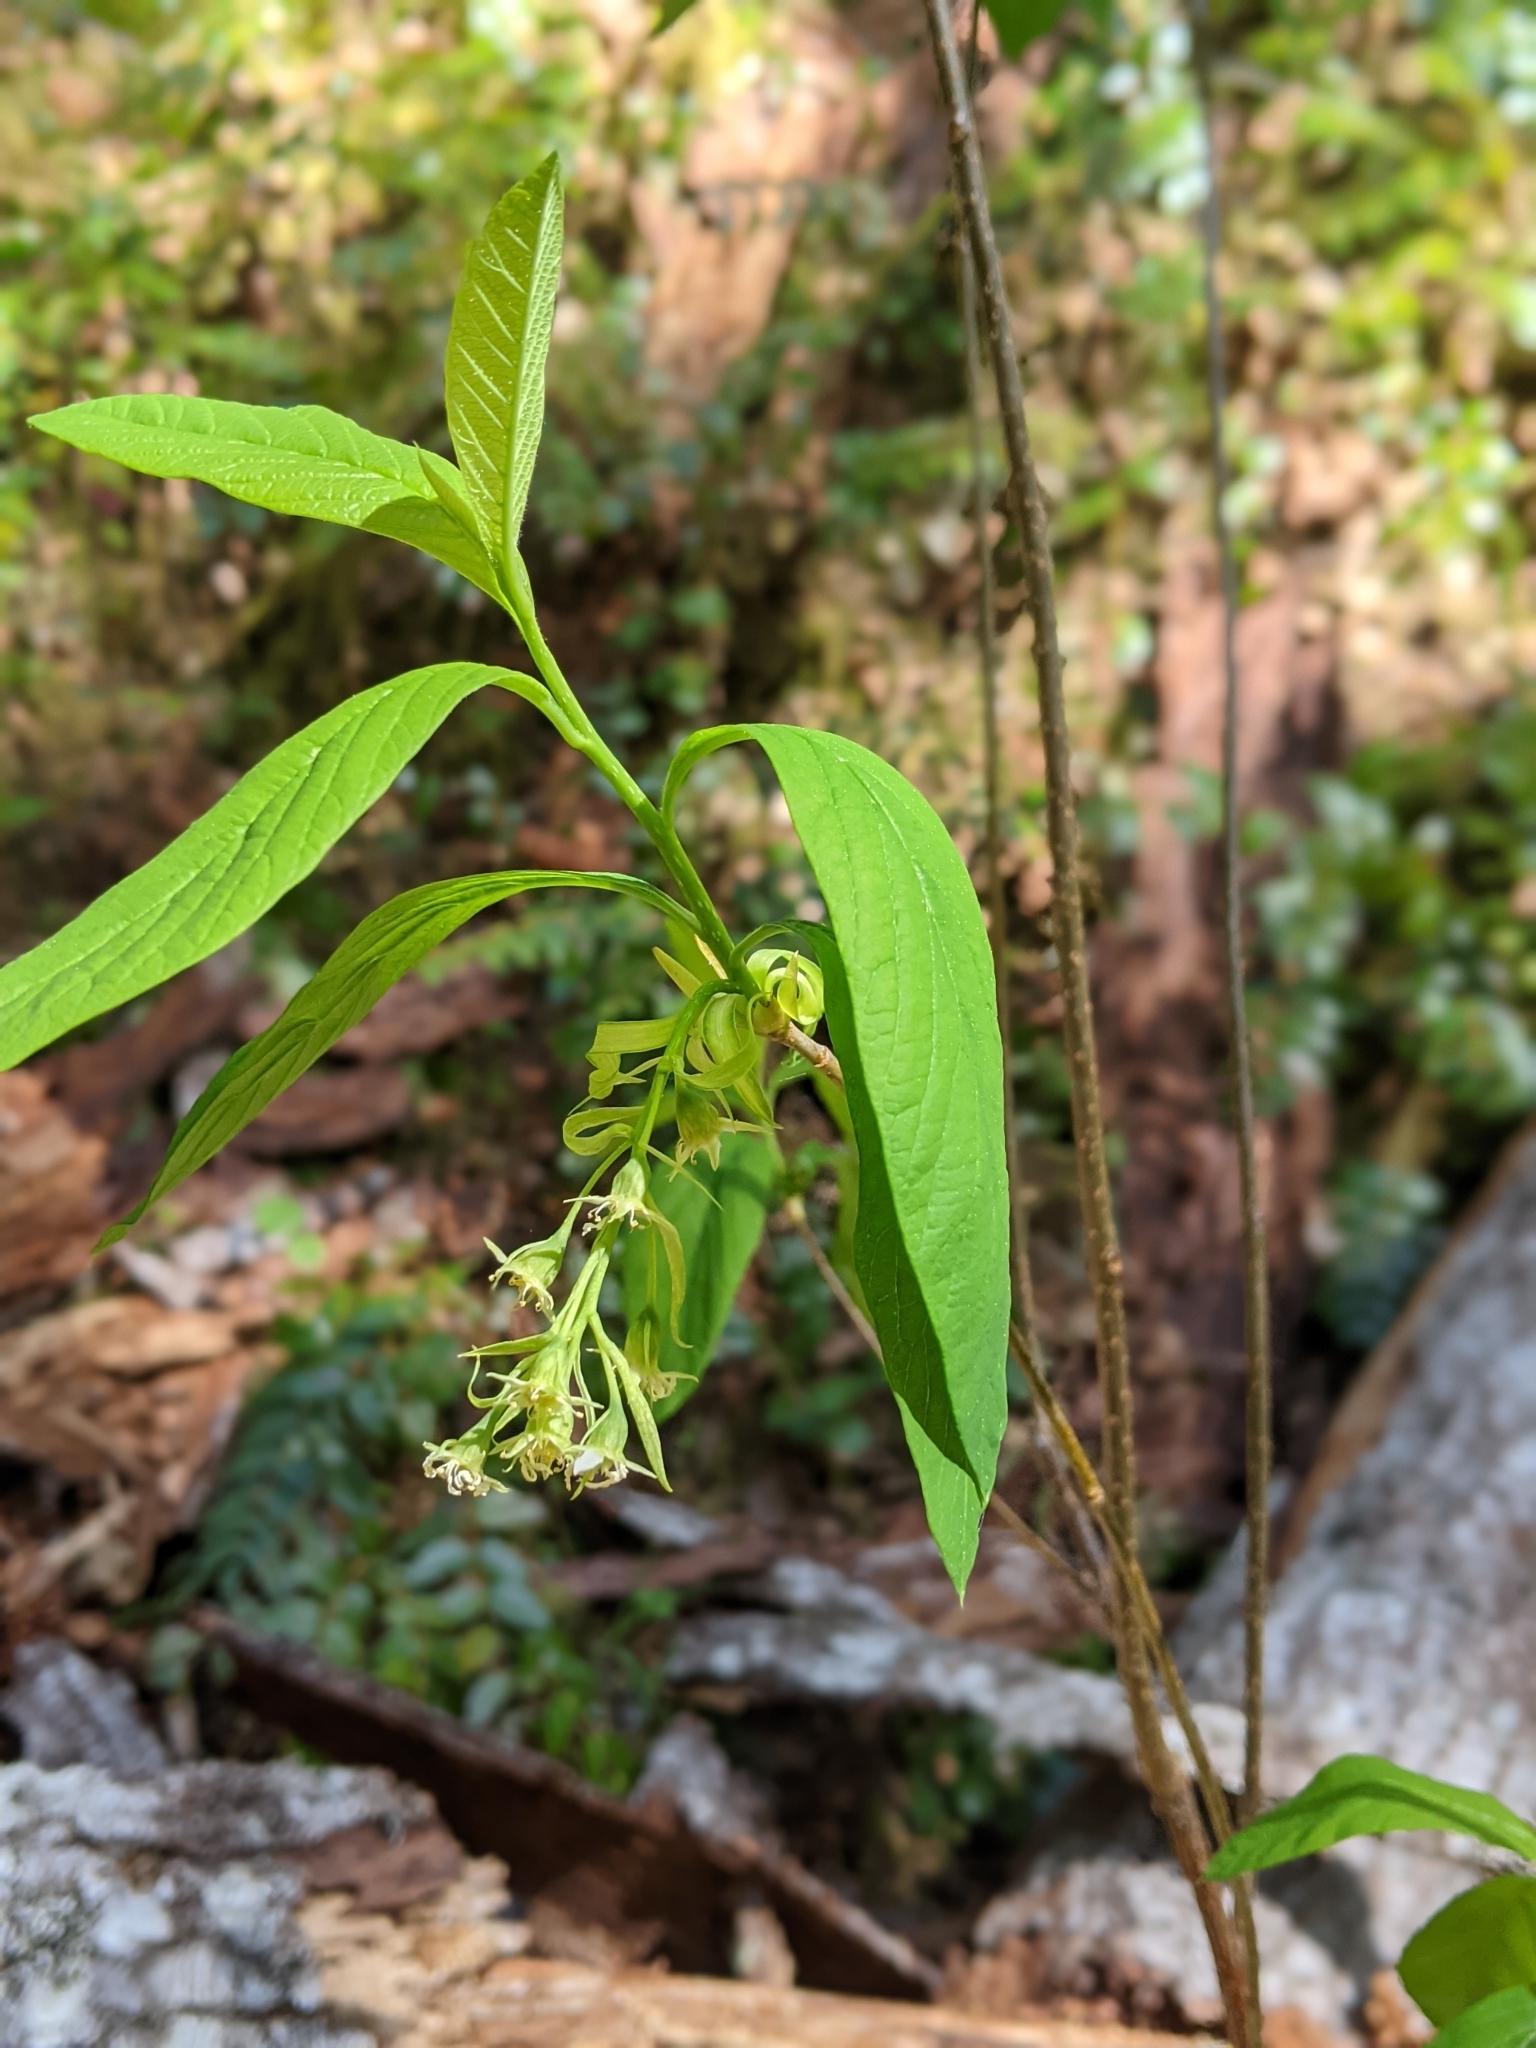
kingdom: Plantae
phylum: Tracheophyta
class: Magnoliopsida
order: Rosales
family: Rosaceae
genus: Oemleria
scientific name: Oemleria cerasiformis
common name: Osoberry
